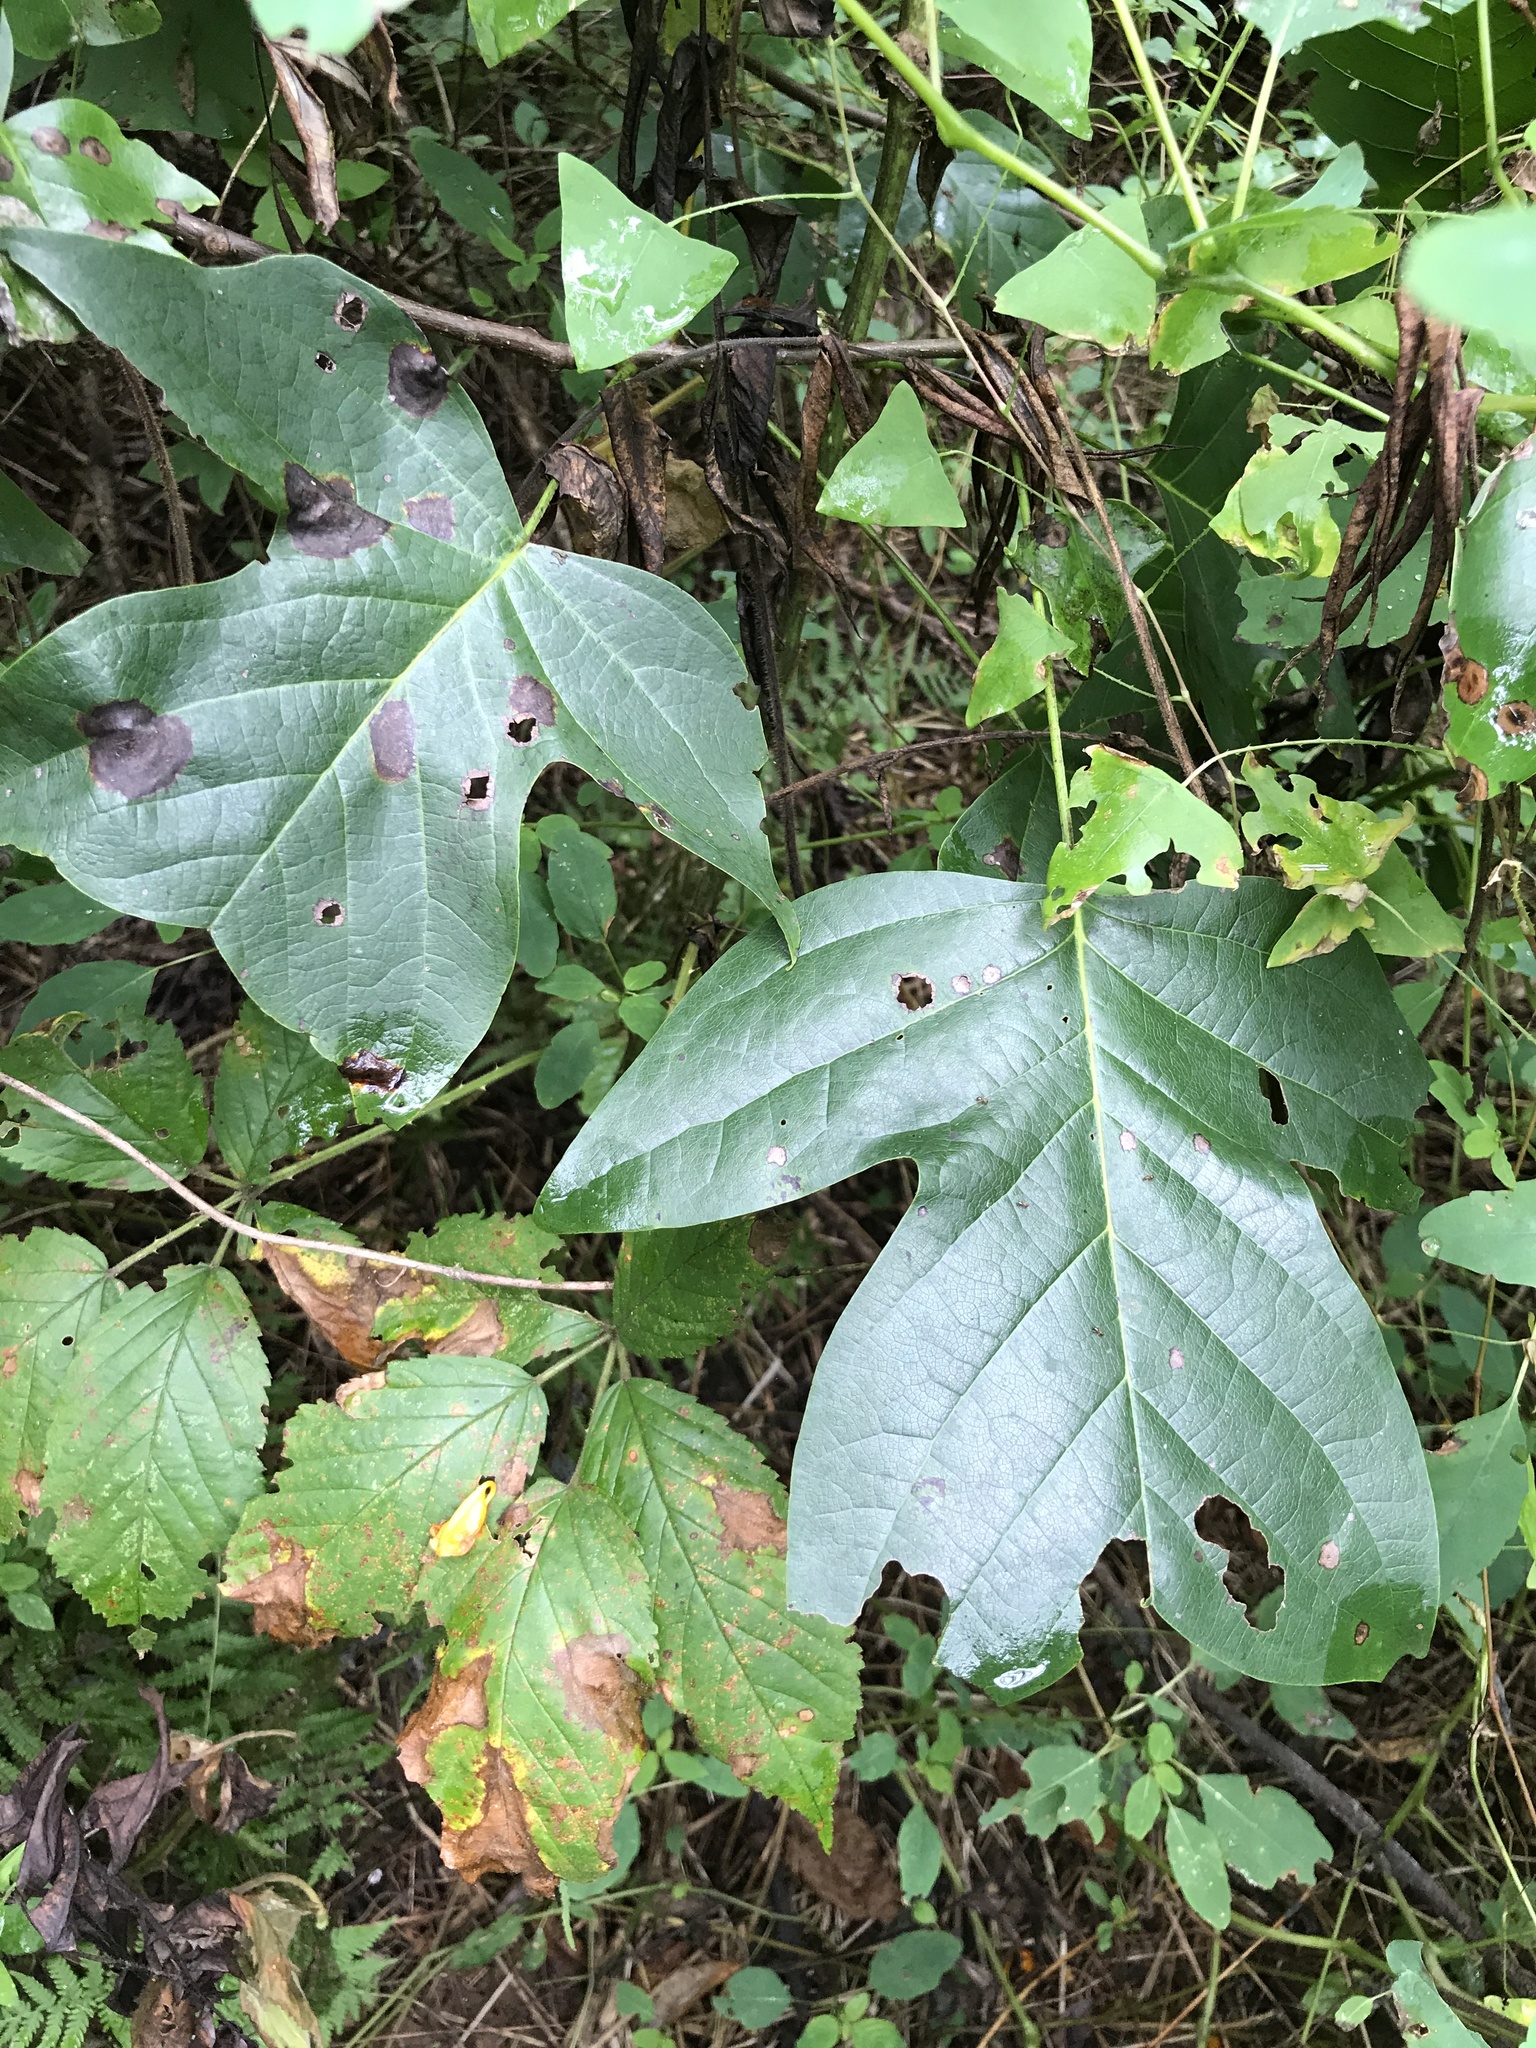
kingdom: Plantae
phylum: Tracheophyta
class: Magnoliopsida
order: Magnoliales
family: Magnoliaceae
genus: Liriodendron
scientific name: Liriodendron tulipifera
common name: Tulip tree
